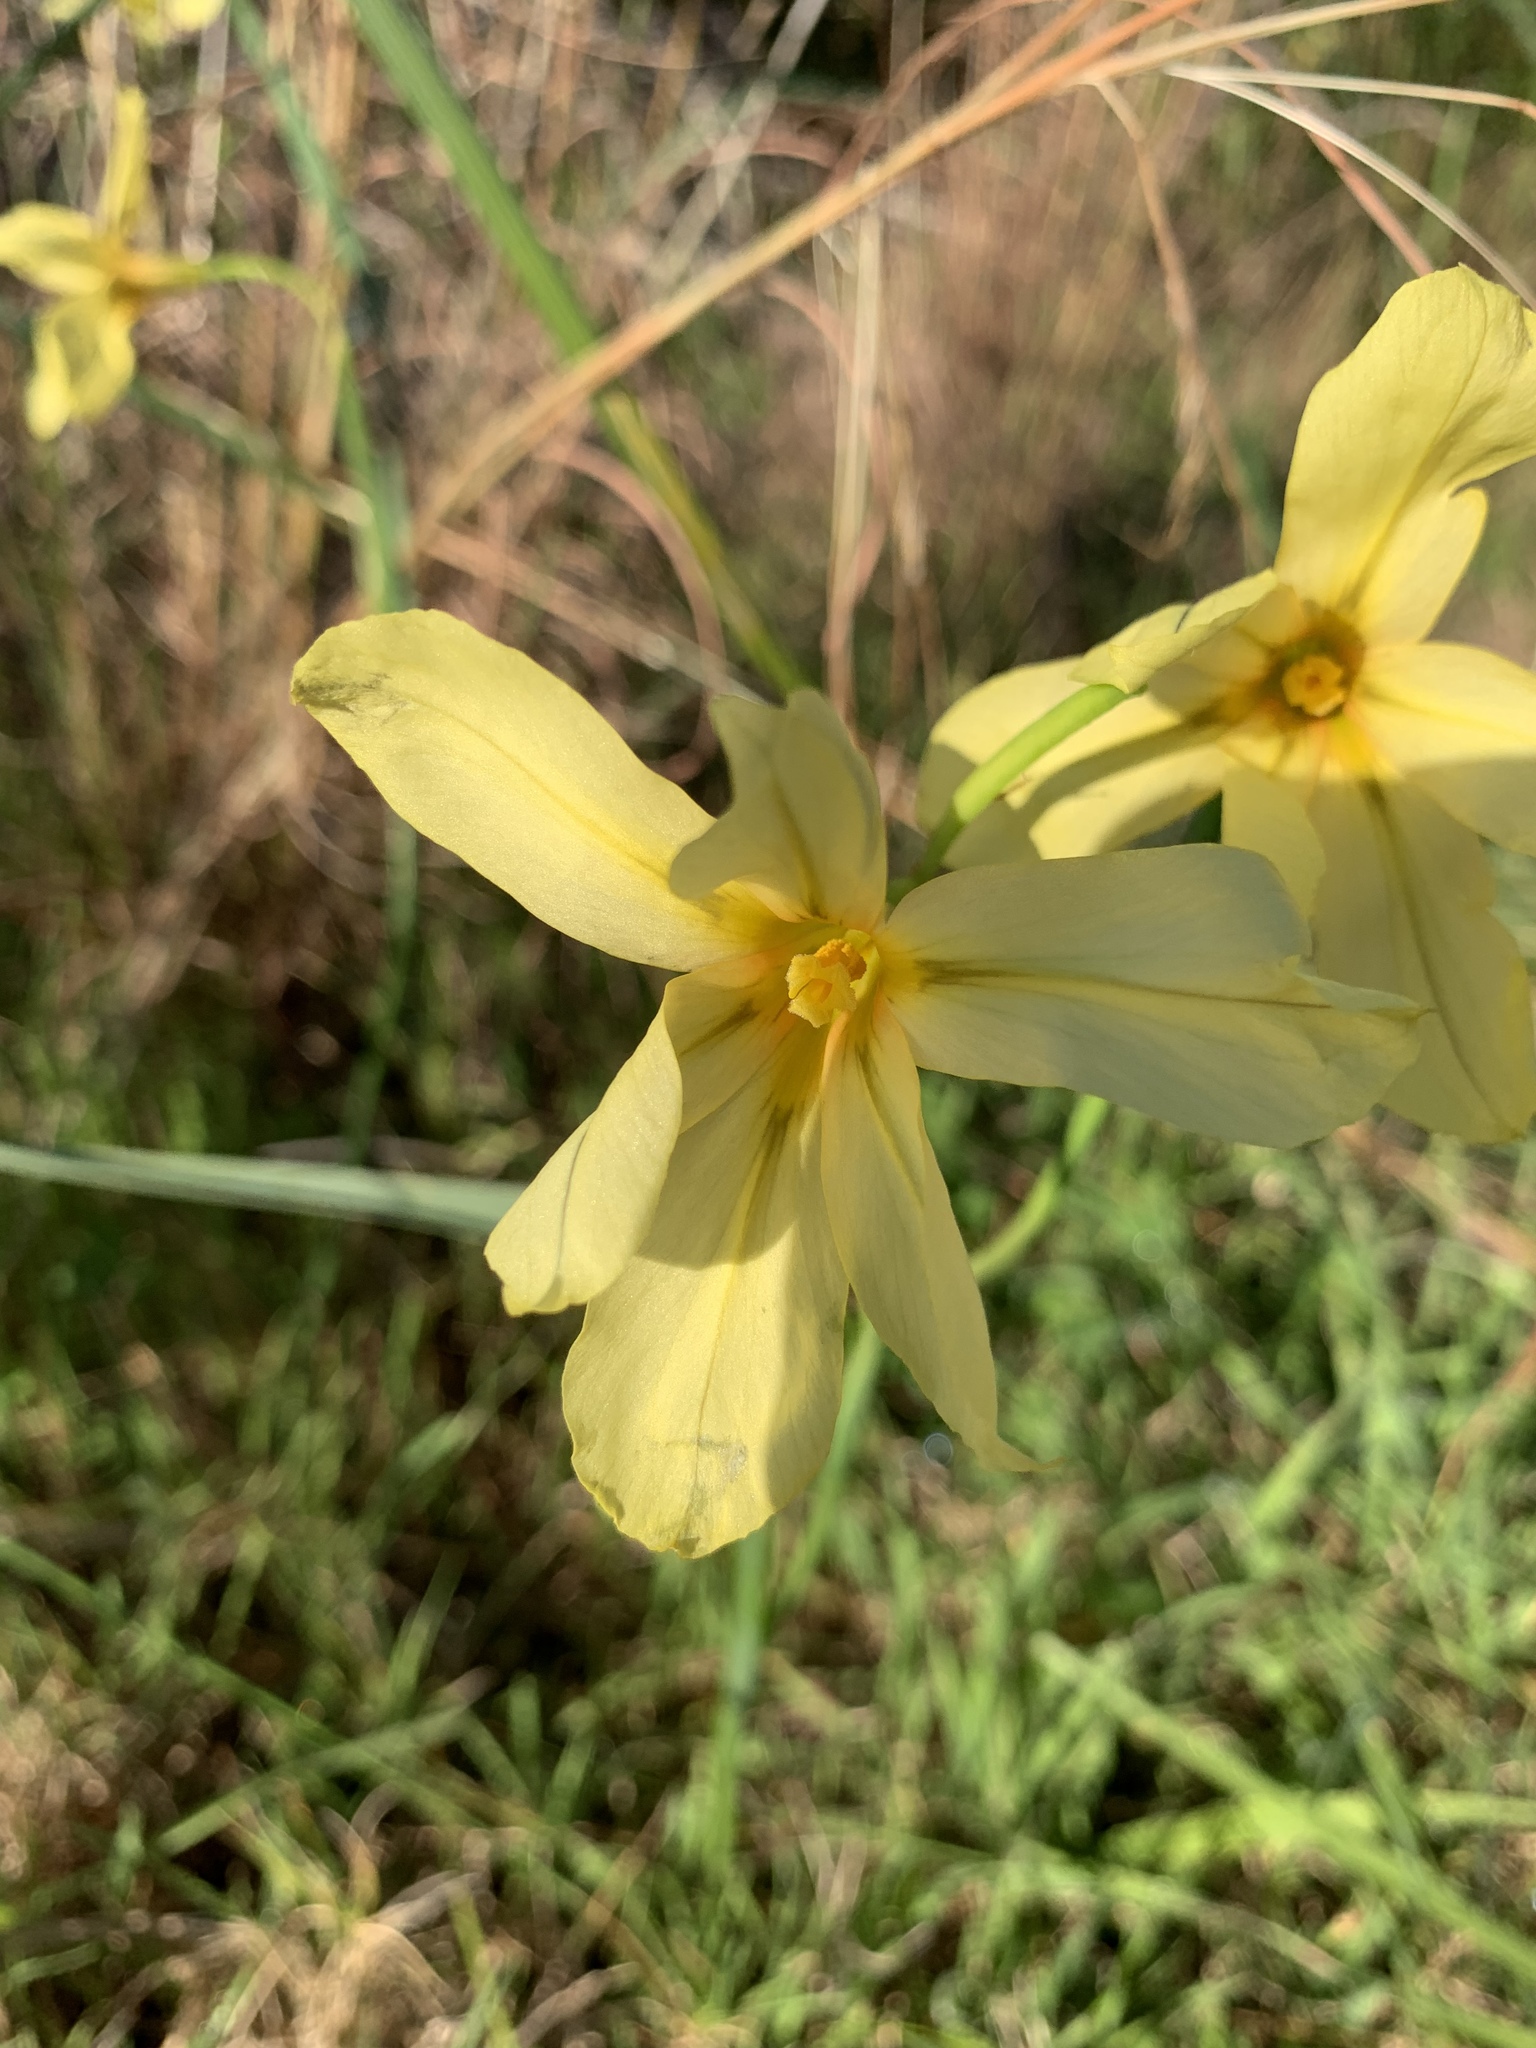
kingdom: Plantae
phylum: Tracheophyta
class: Liliopsida
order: Asparagales
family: Iridaceae
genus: Moraea
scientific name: Moraea collina
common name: Cape-tulip
